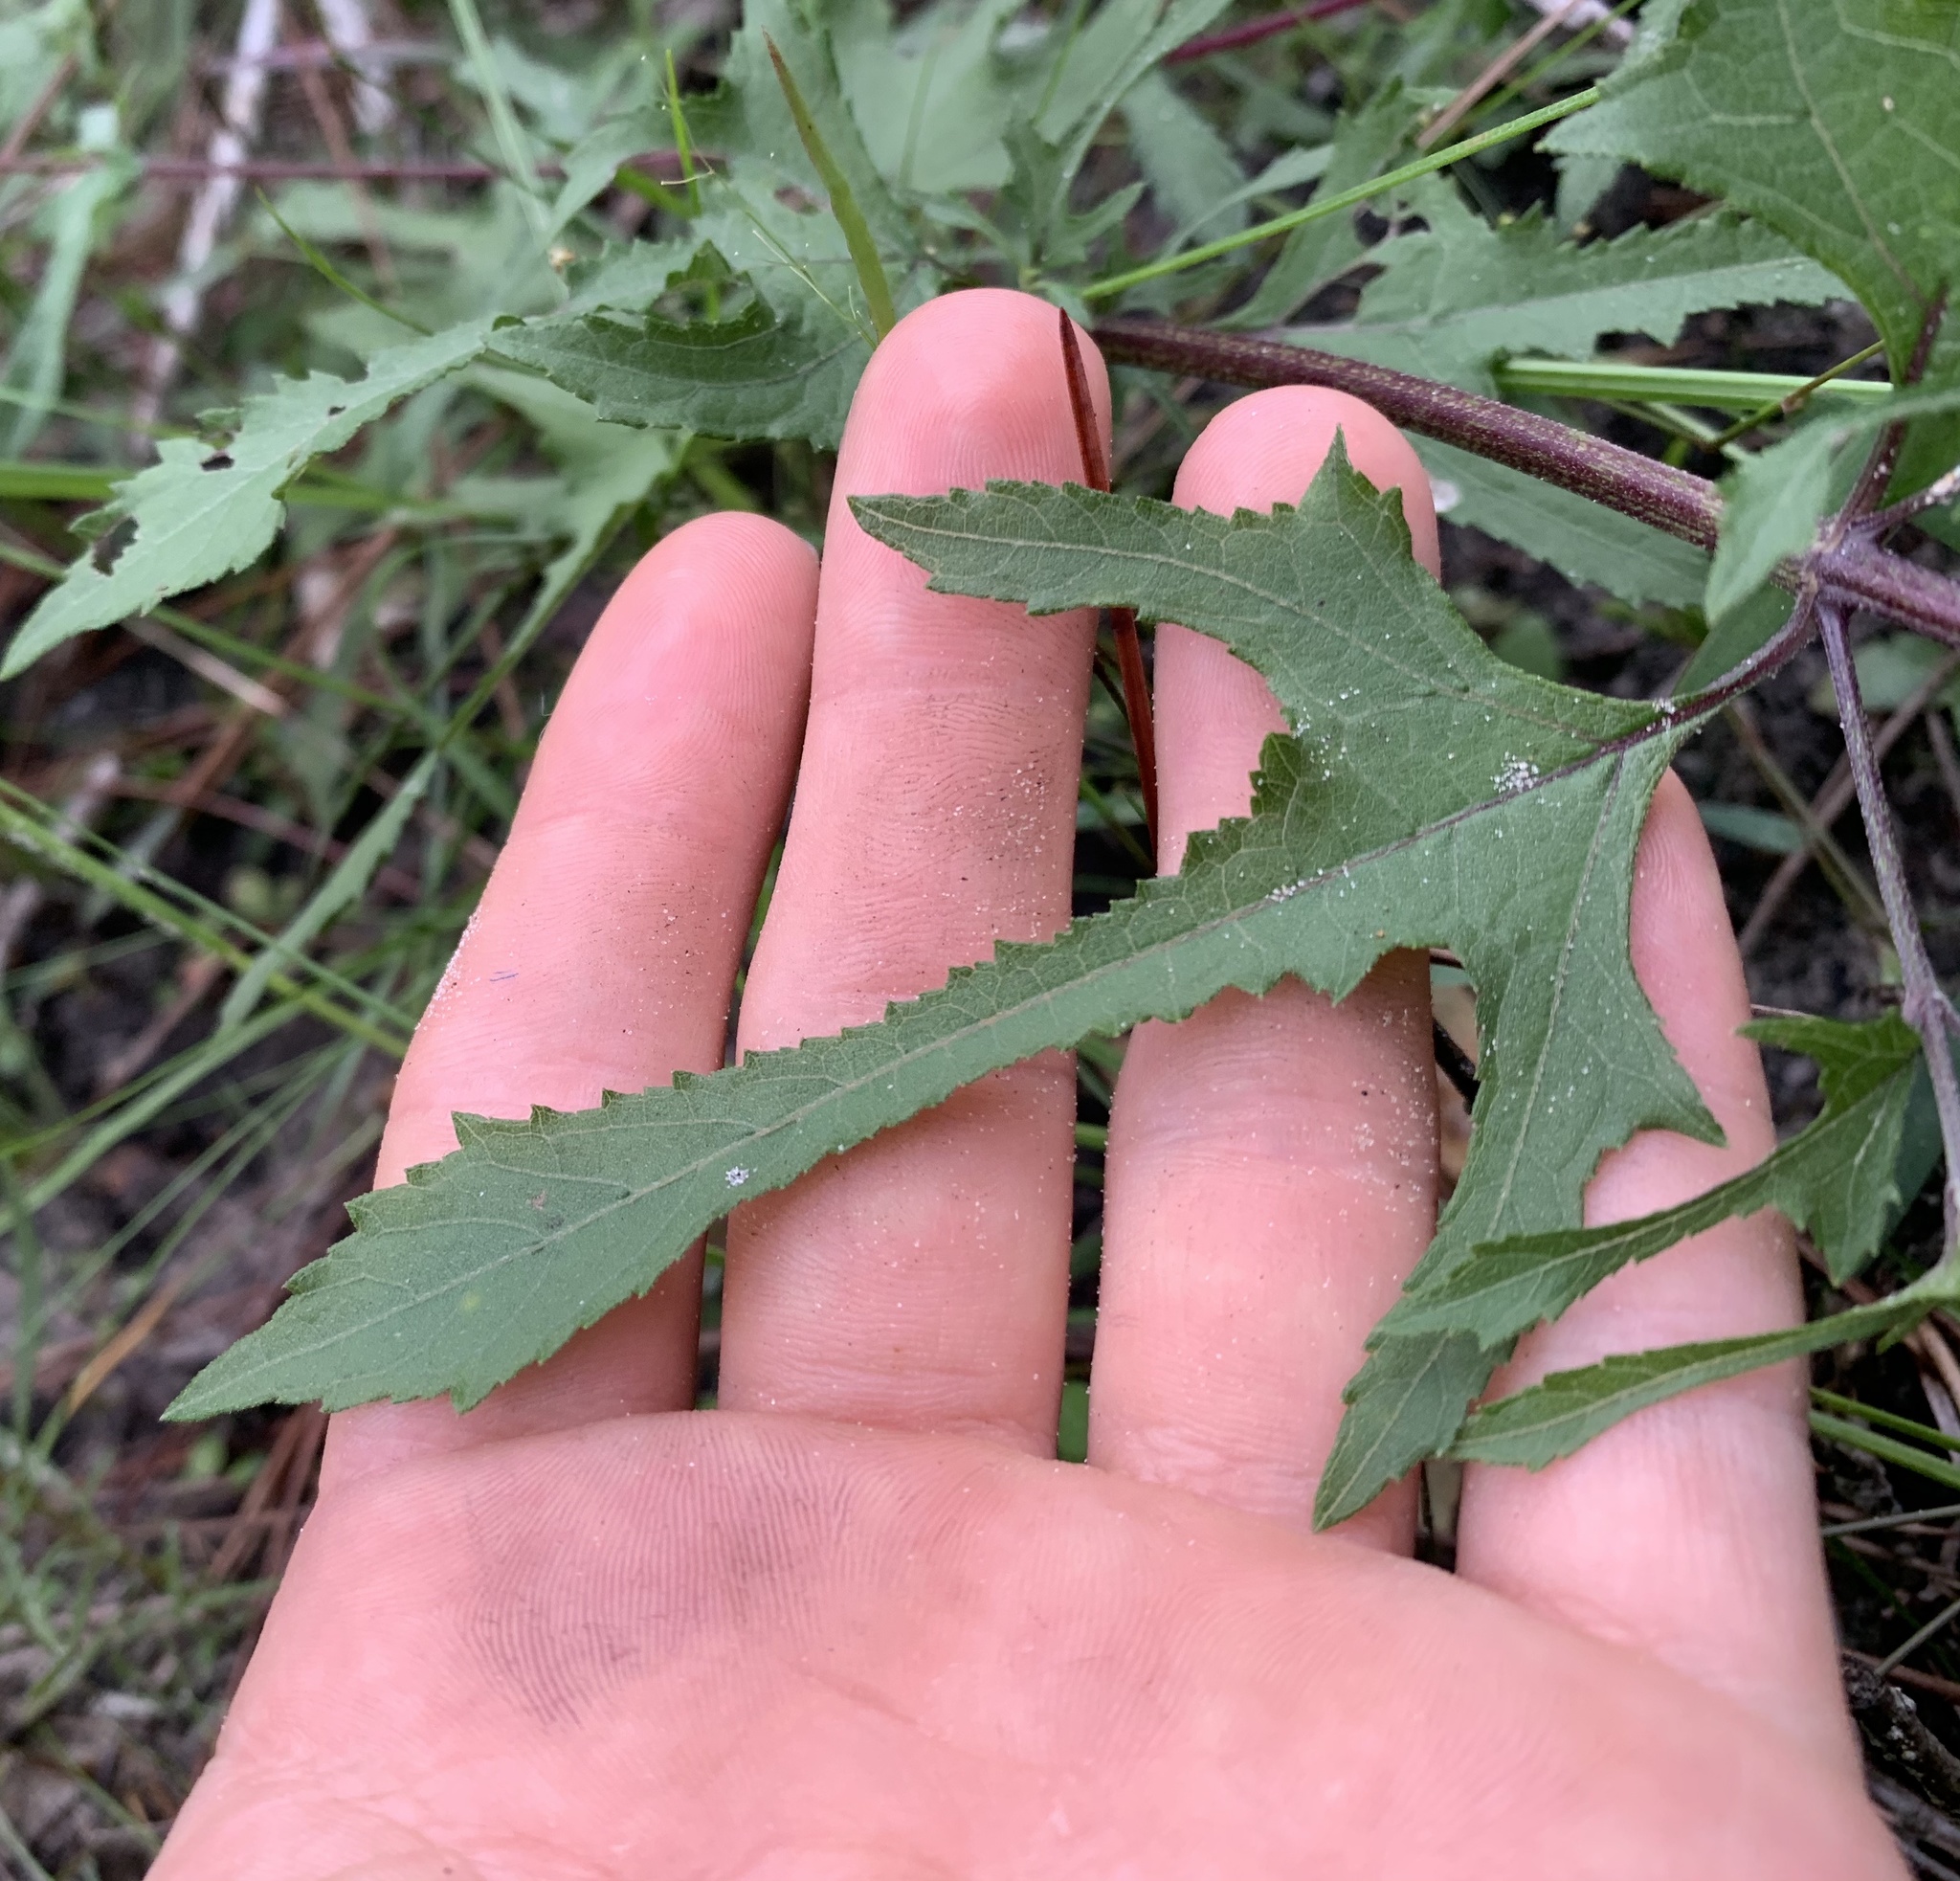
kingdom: Plantae
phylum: Tracheophyta
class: Magnoliopsida
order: Asterales
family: Asteraceae
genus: Melanthera
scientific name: Melanthera nivea
